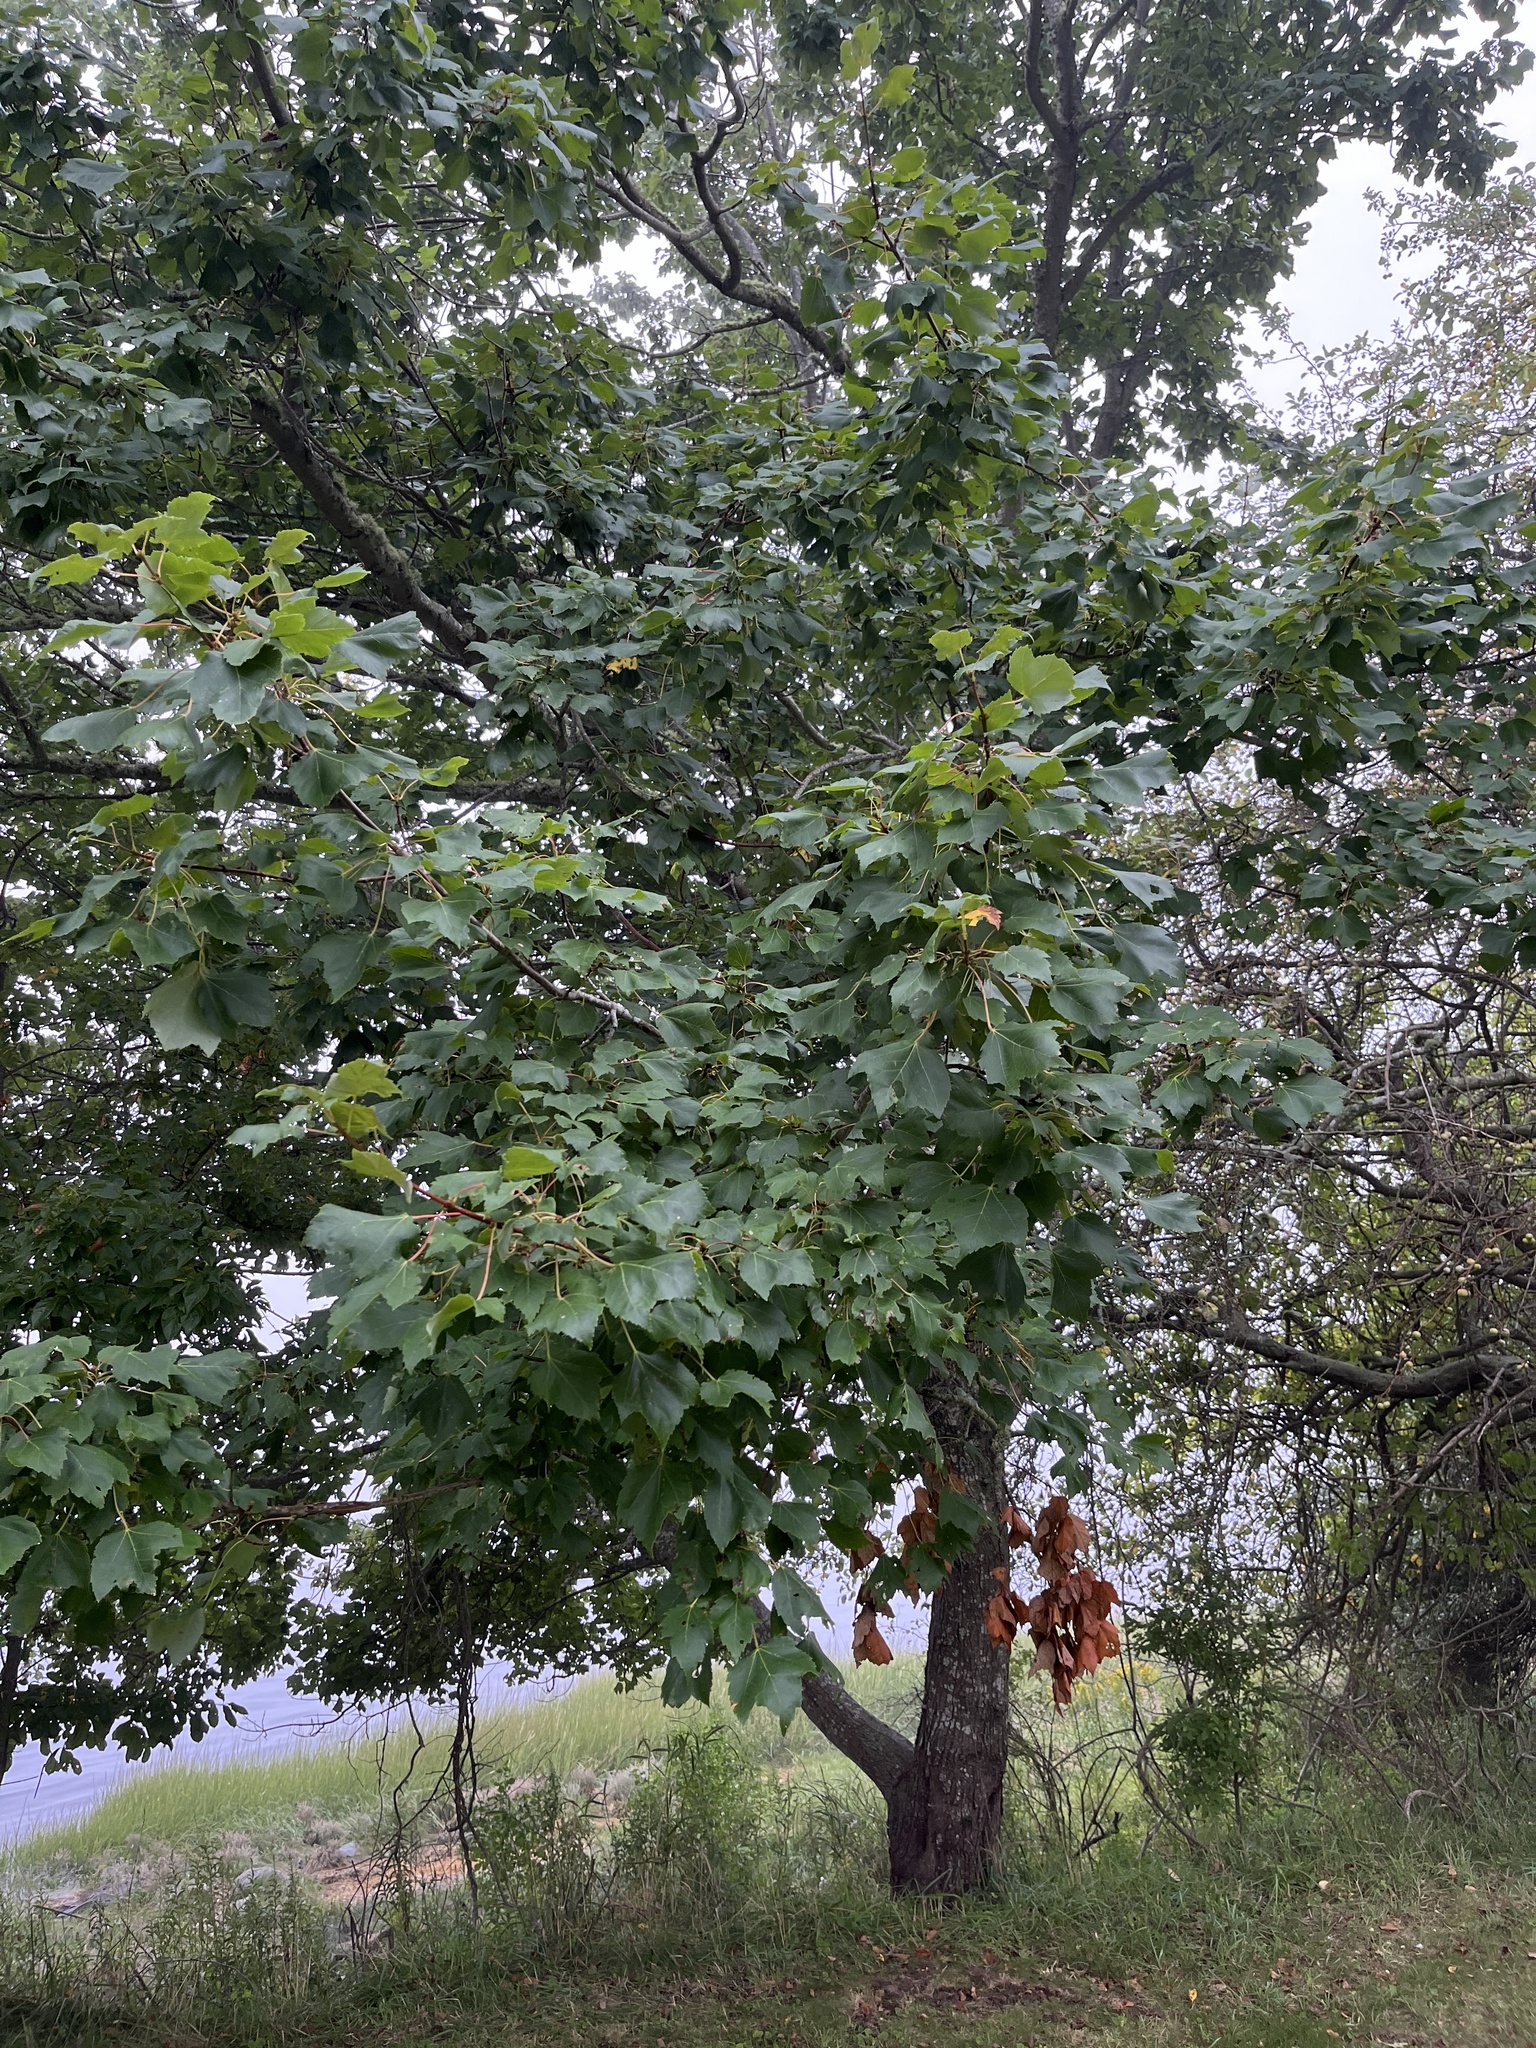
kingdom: Plantae
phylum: Tracheophyta
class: Magnoliopsida
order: Sapindales
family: Sapindaceae
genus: Acer
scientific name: Acer rubrum
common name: Red maple
